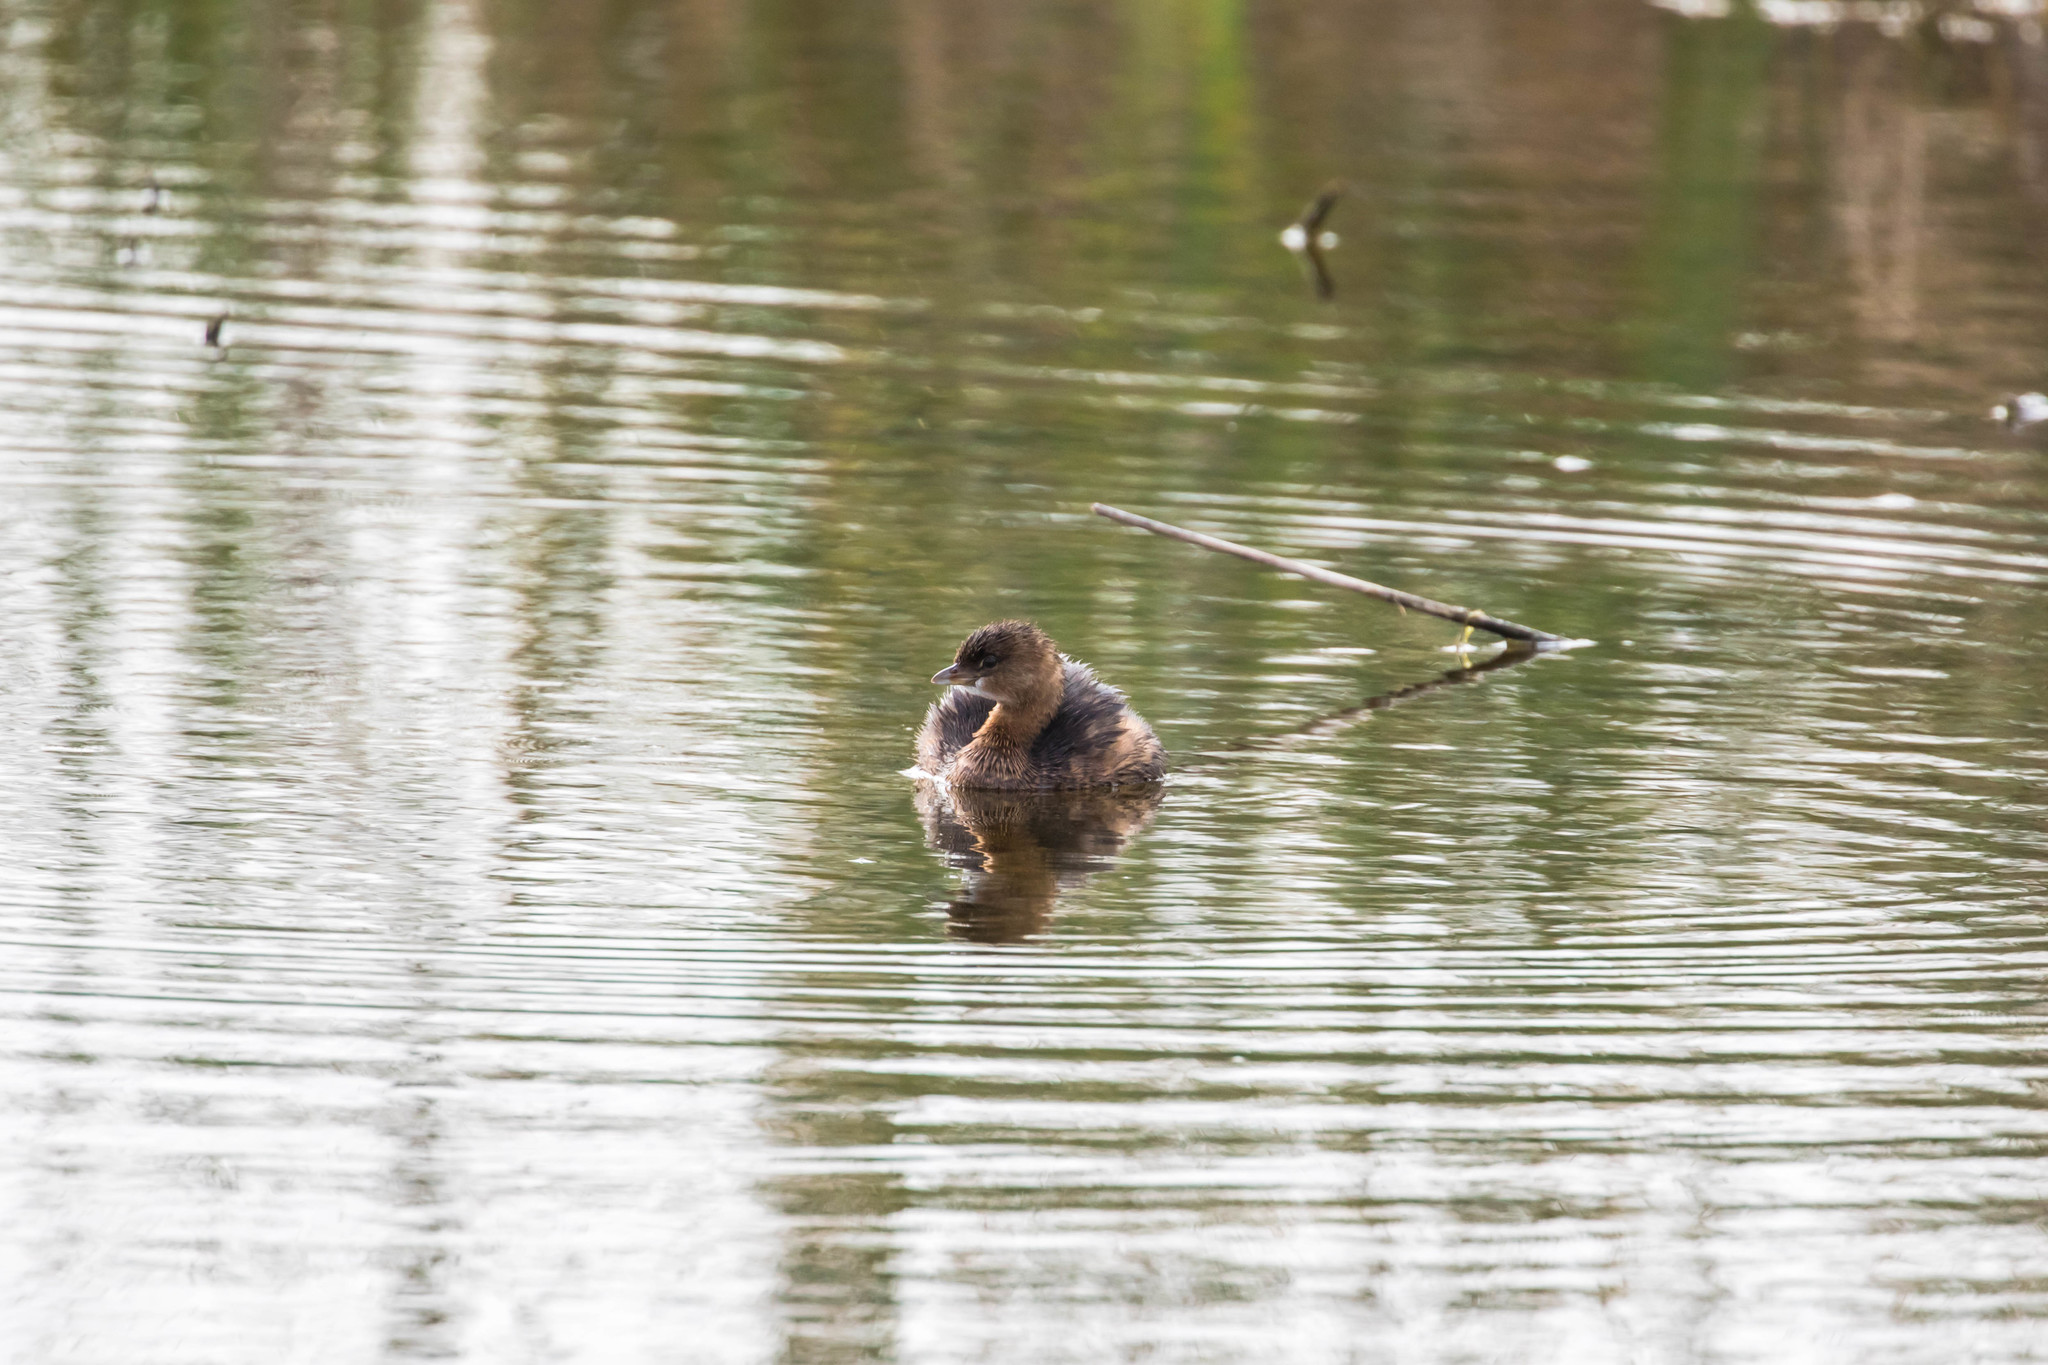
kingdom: Animalia
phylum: Chordata
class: Aves
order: Podicipediformes
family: Podicipedidae
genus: Podilymbus
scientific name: Podilymbus podiceps
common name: Pied-billed grebe
